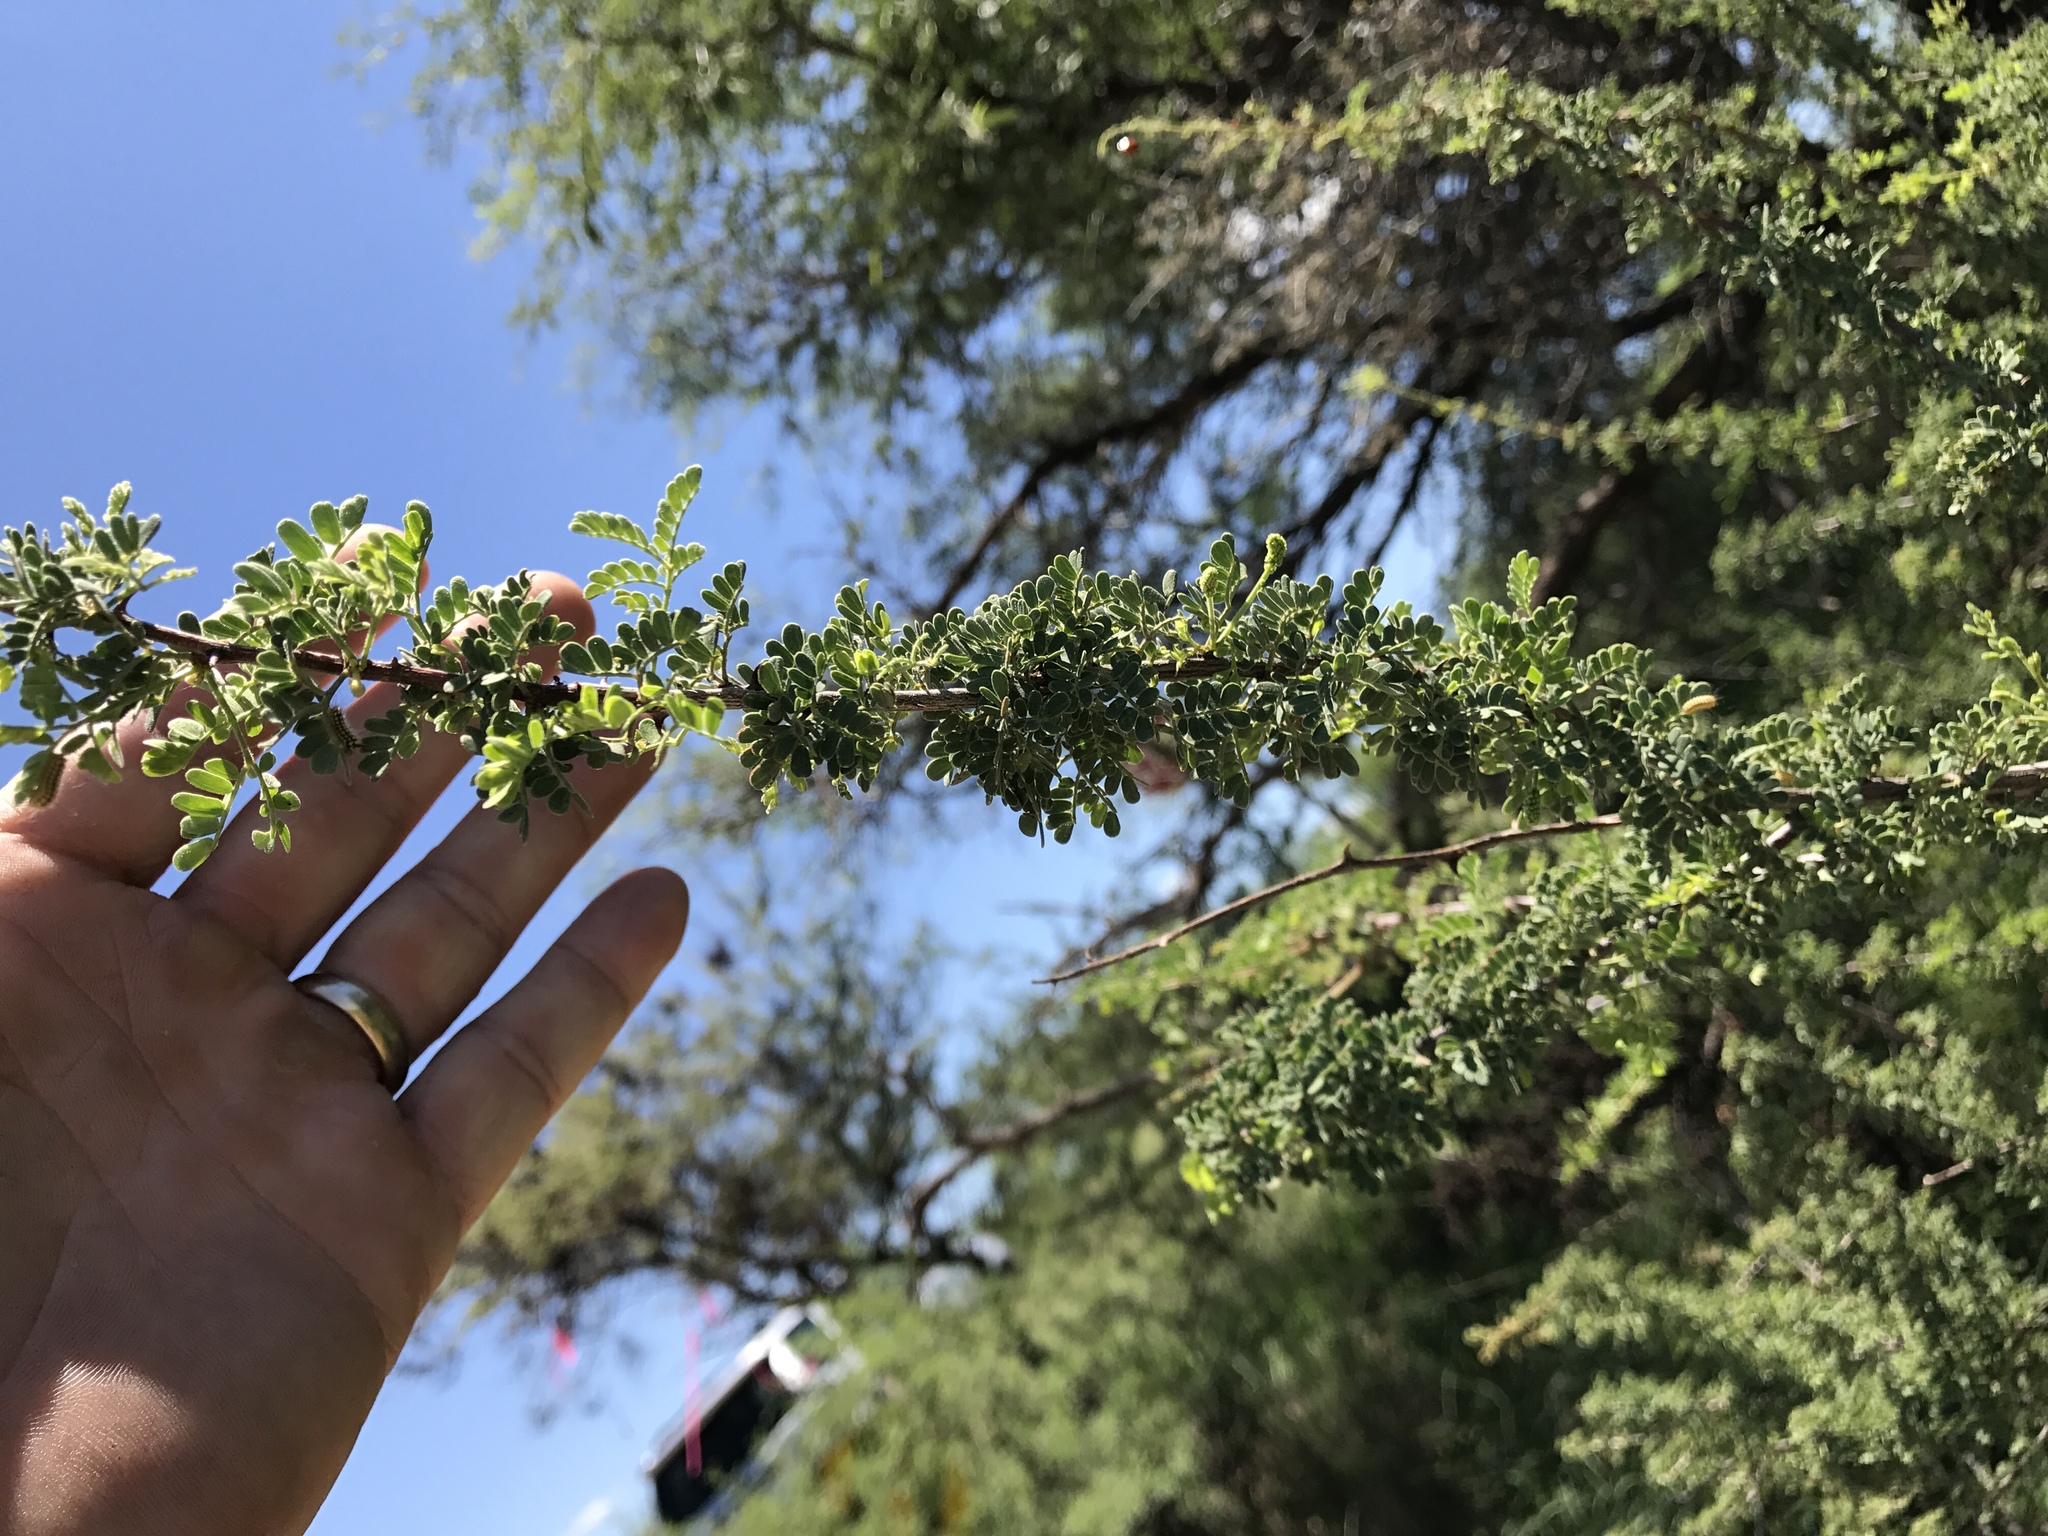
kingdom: Plantae
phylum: Tracheophyta
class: Magnoliopsida
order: Fabales
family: Fabaceae
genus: Senegalia
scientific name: Senegalia greggii
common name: Texas-mimosa
